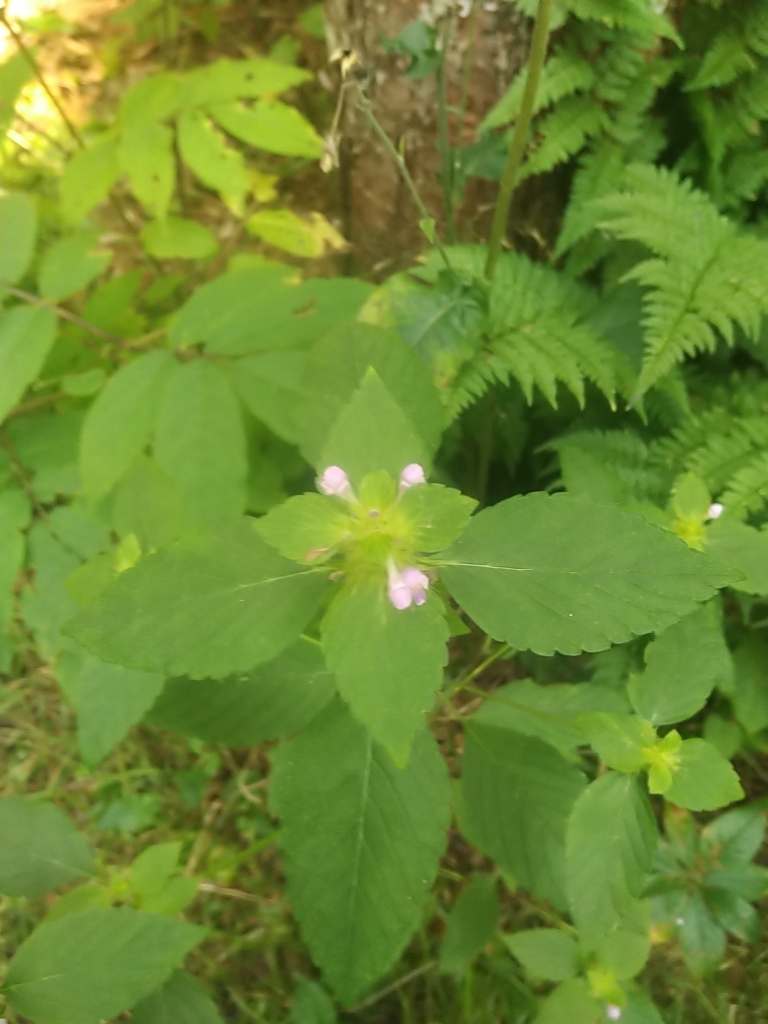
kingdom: Plantae
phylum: Tracheophyta
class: Magnoliopsida
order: Lamiales
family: Lamiaceae
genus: Galeopsis
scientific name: Galeopsis bifida
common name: Bifid hemp-nettle
